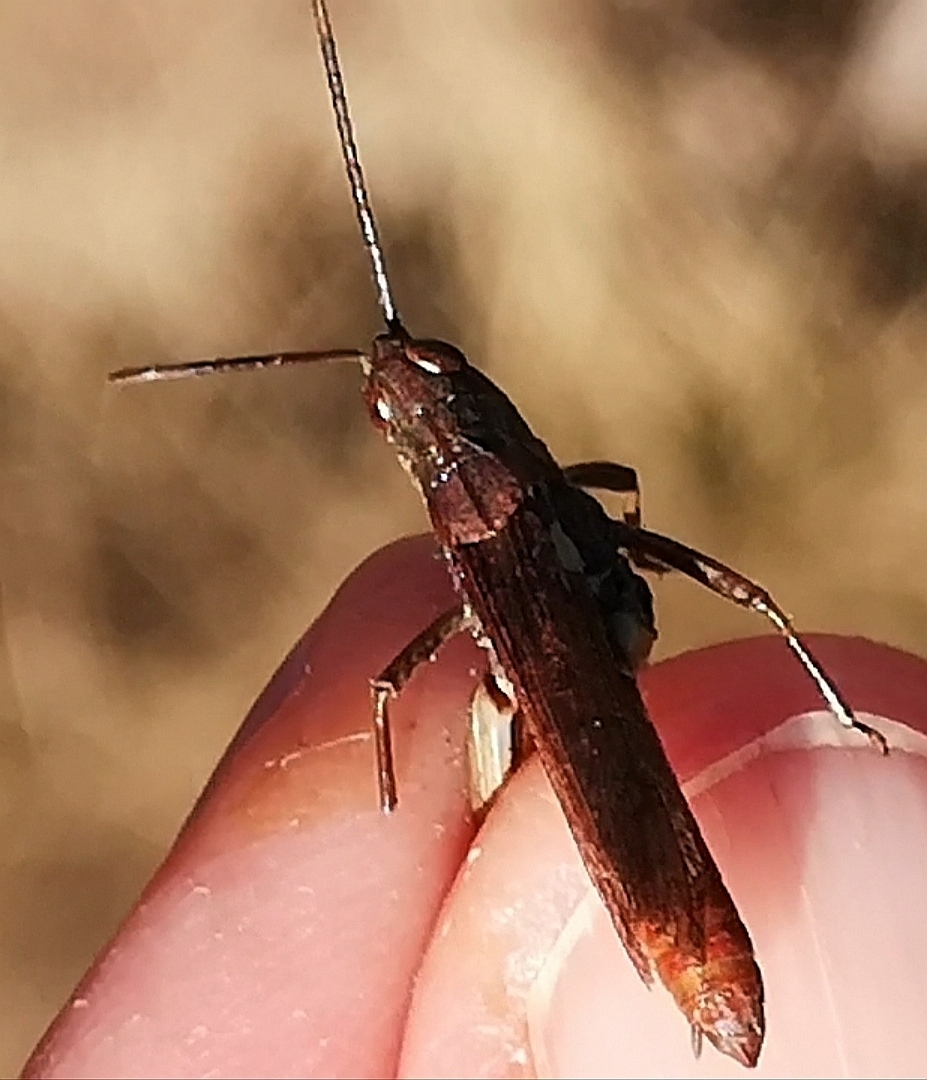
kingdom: Animalia
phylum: Arthropoda
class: Insecta
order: Orthoptera
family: Acrididae
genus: Chorthippus
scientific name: Chorthippus biguttulus
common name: Bow-winged grasshopper
